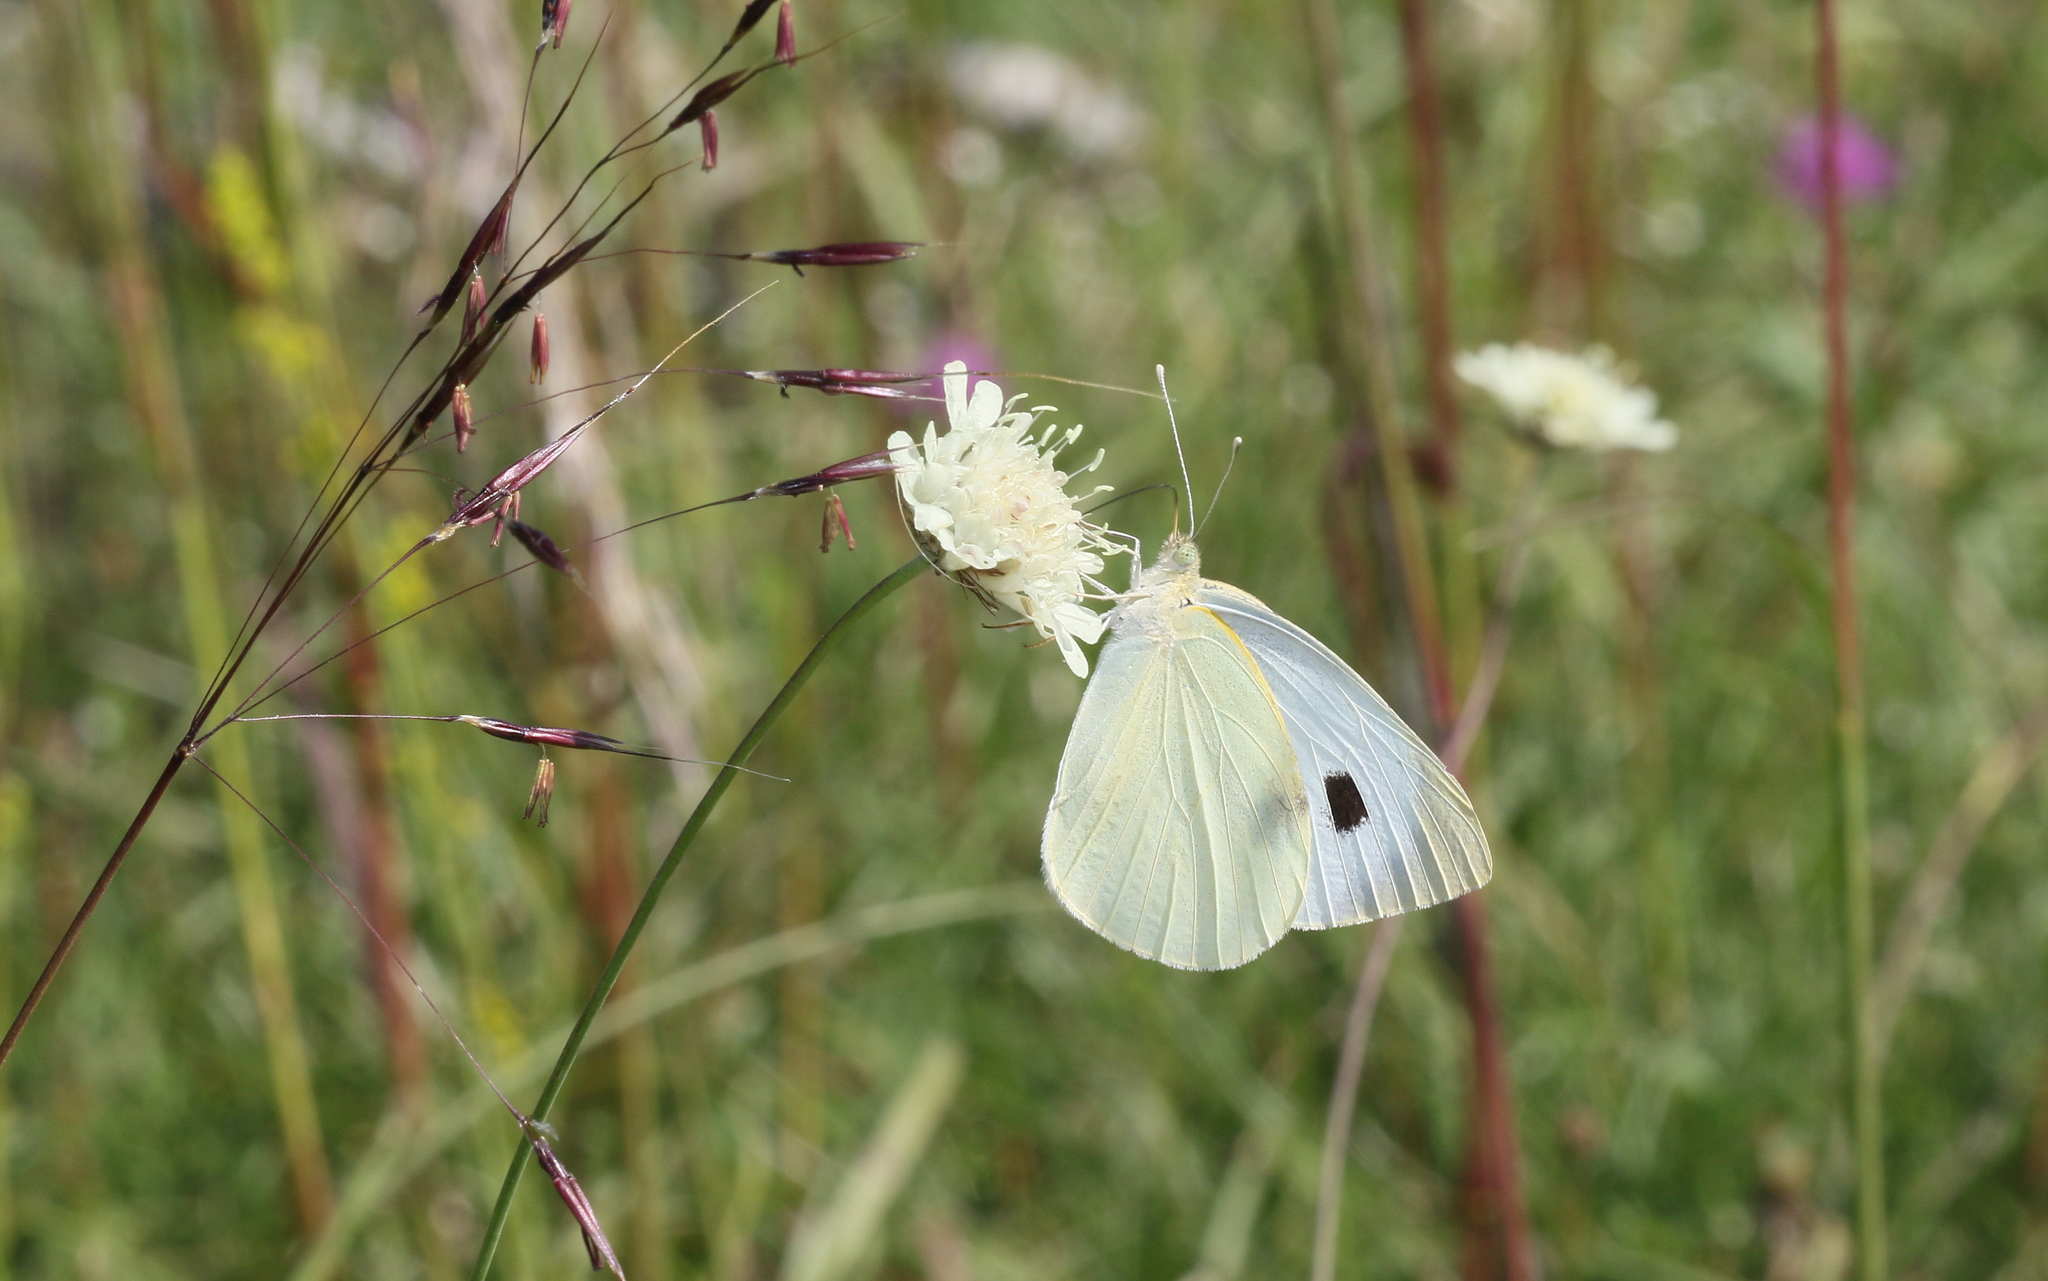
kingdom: Animalia
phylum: Arthropoda
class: Insecta
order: Lepidoptera
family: Pieridae
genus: Pieris
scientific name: Pieris brassicae
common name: Large white
